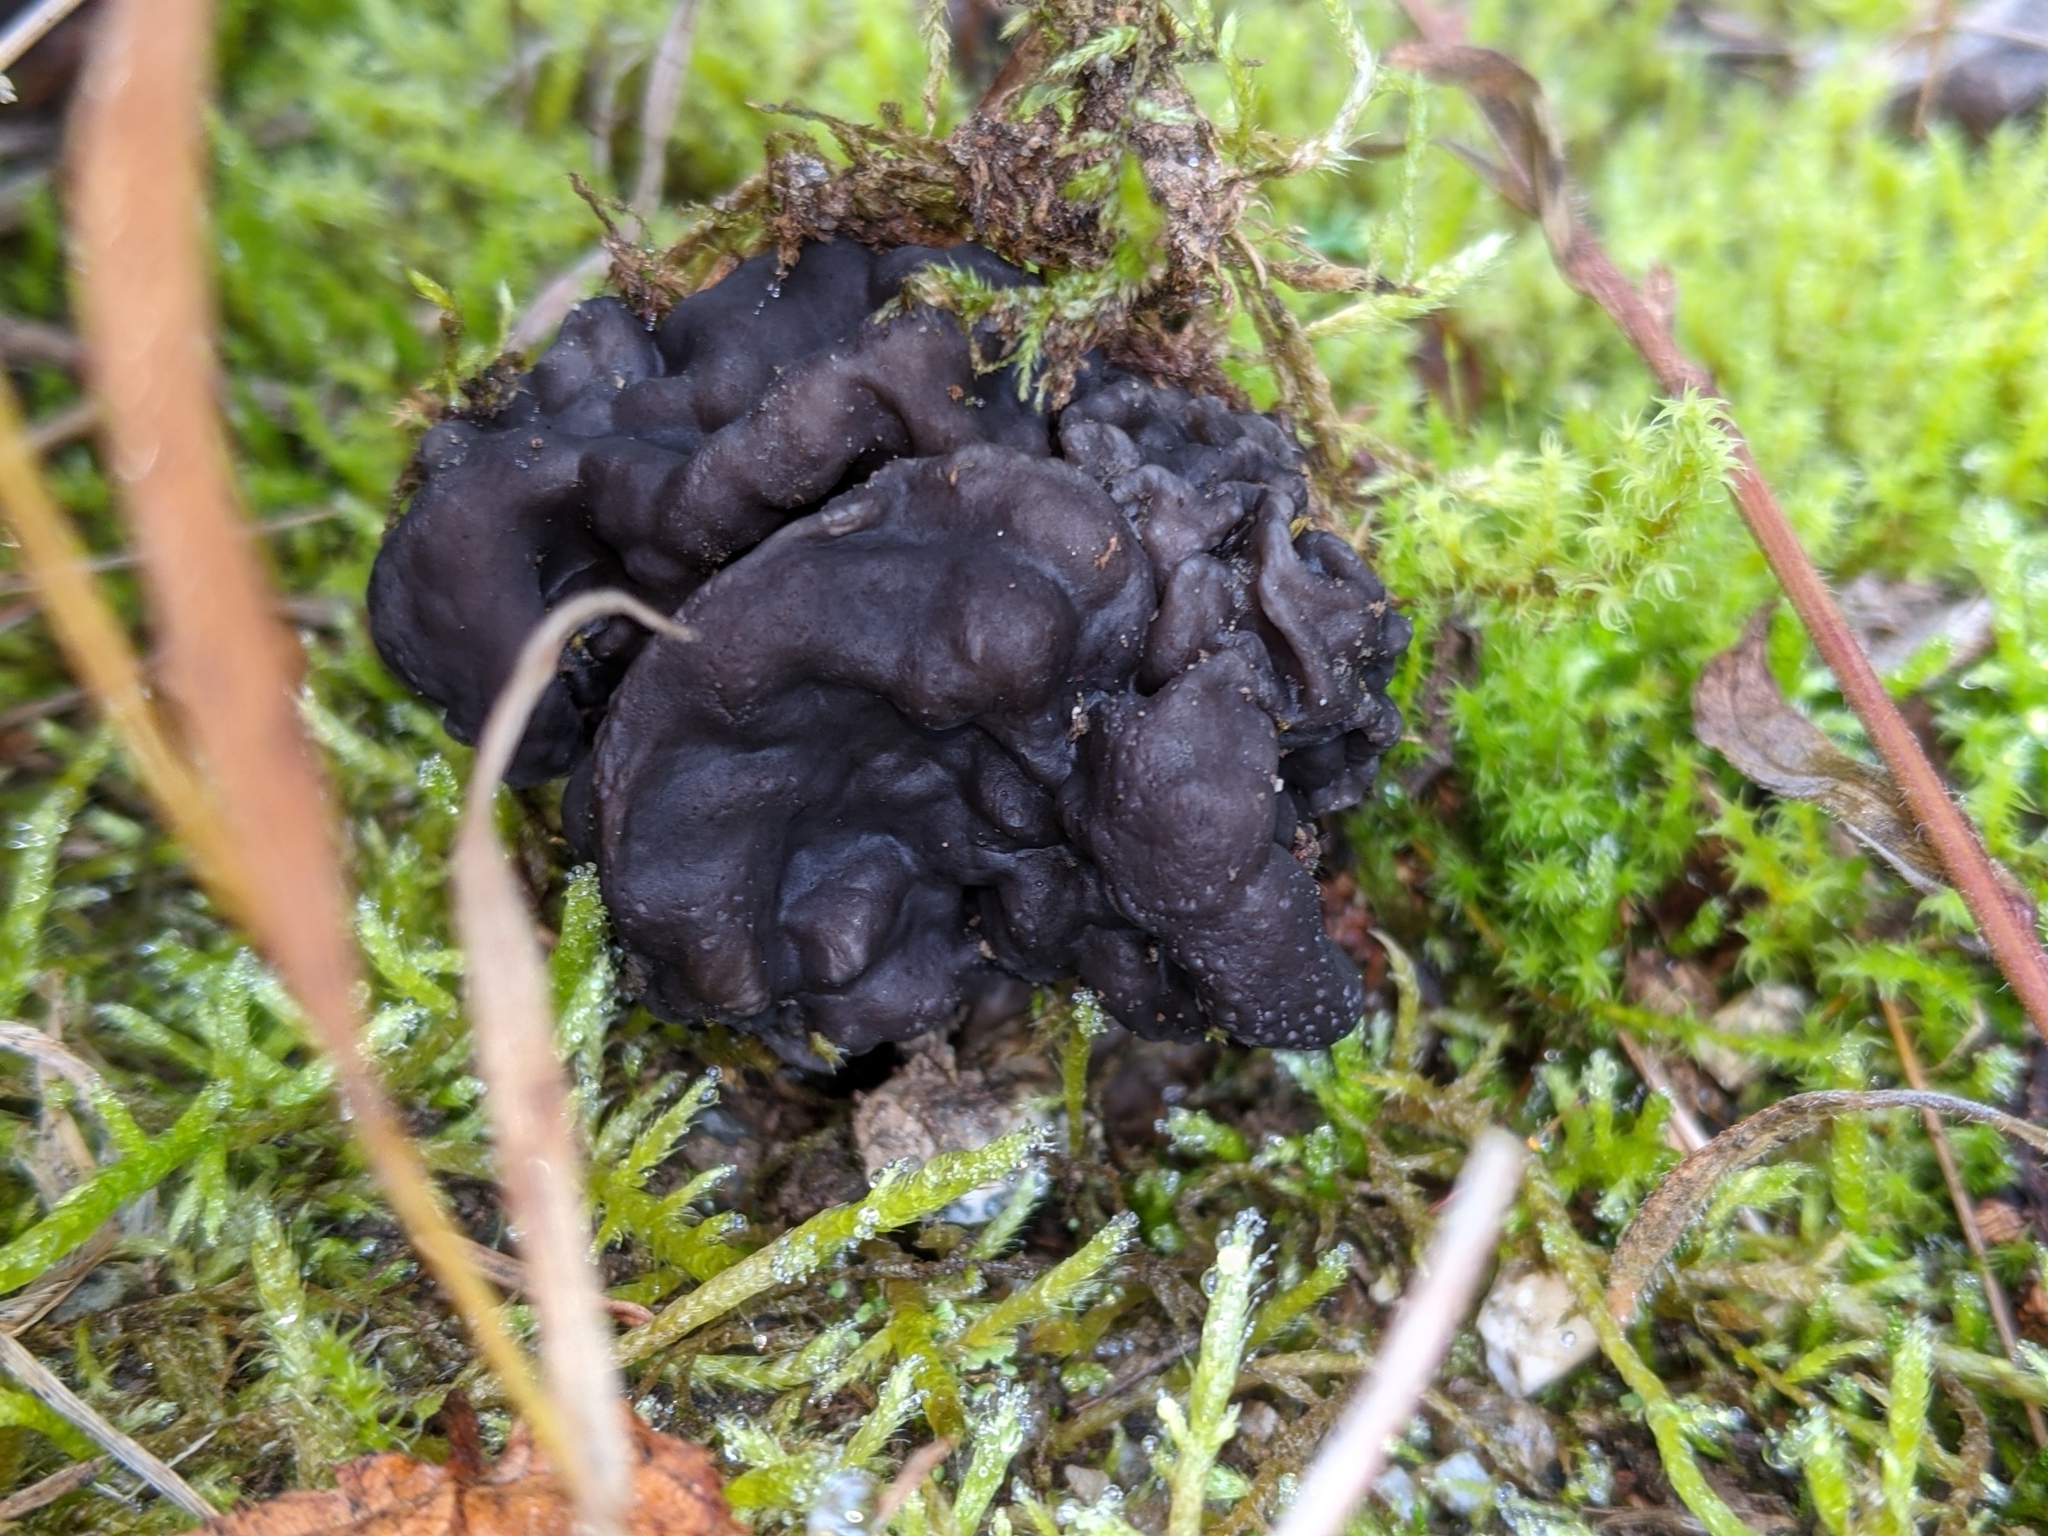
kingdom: Fungi
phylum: Ascomycota
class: Pezizomycetes
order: Pezizales
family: Helvellaceae
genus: Helvella
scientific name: Helvella vespertina
